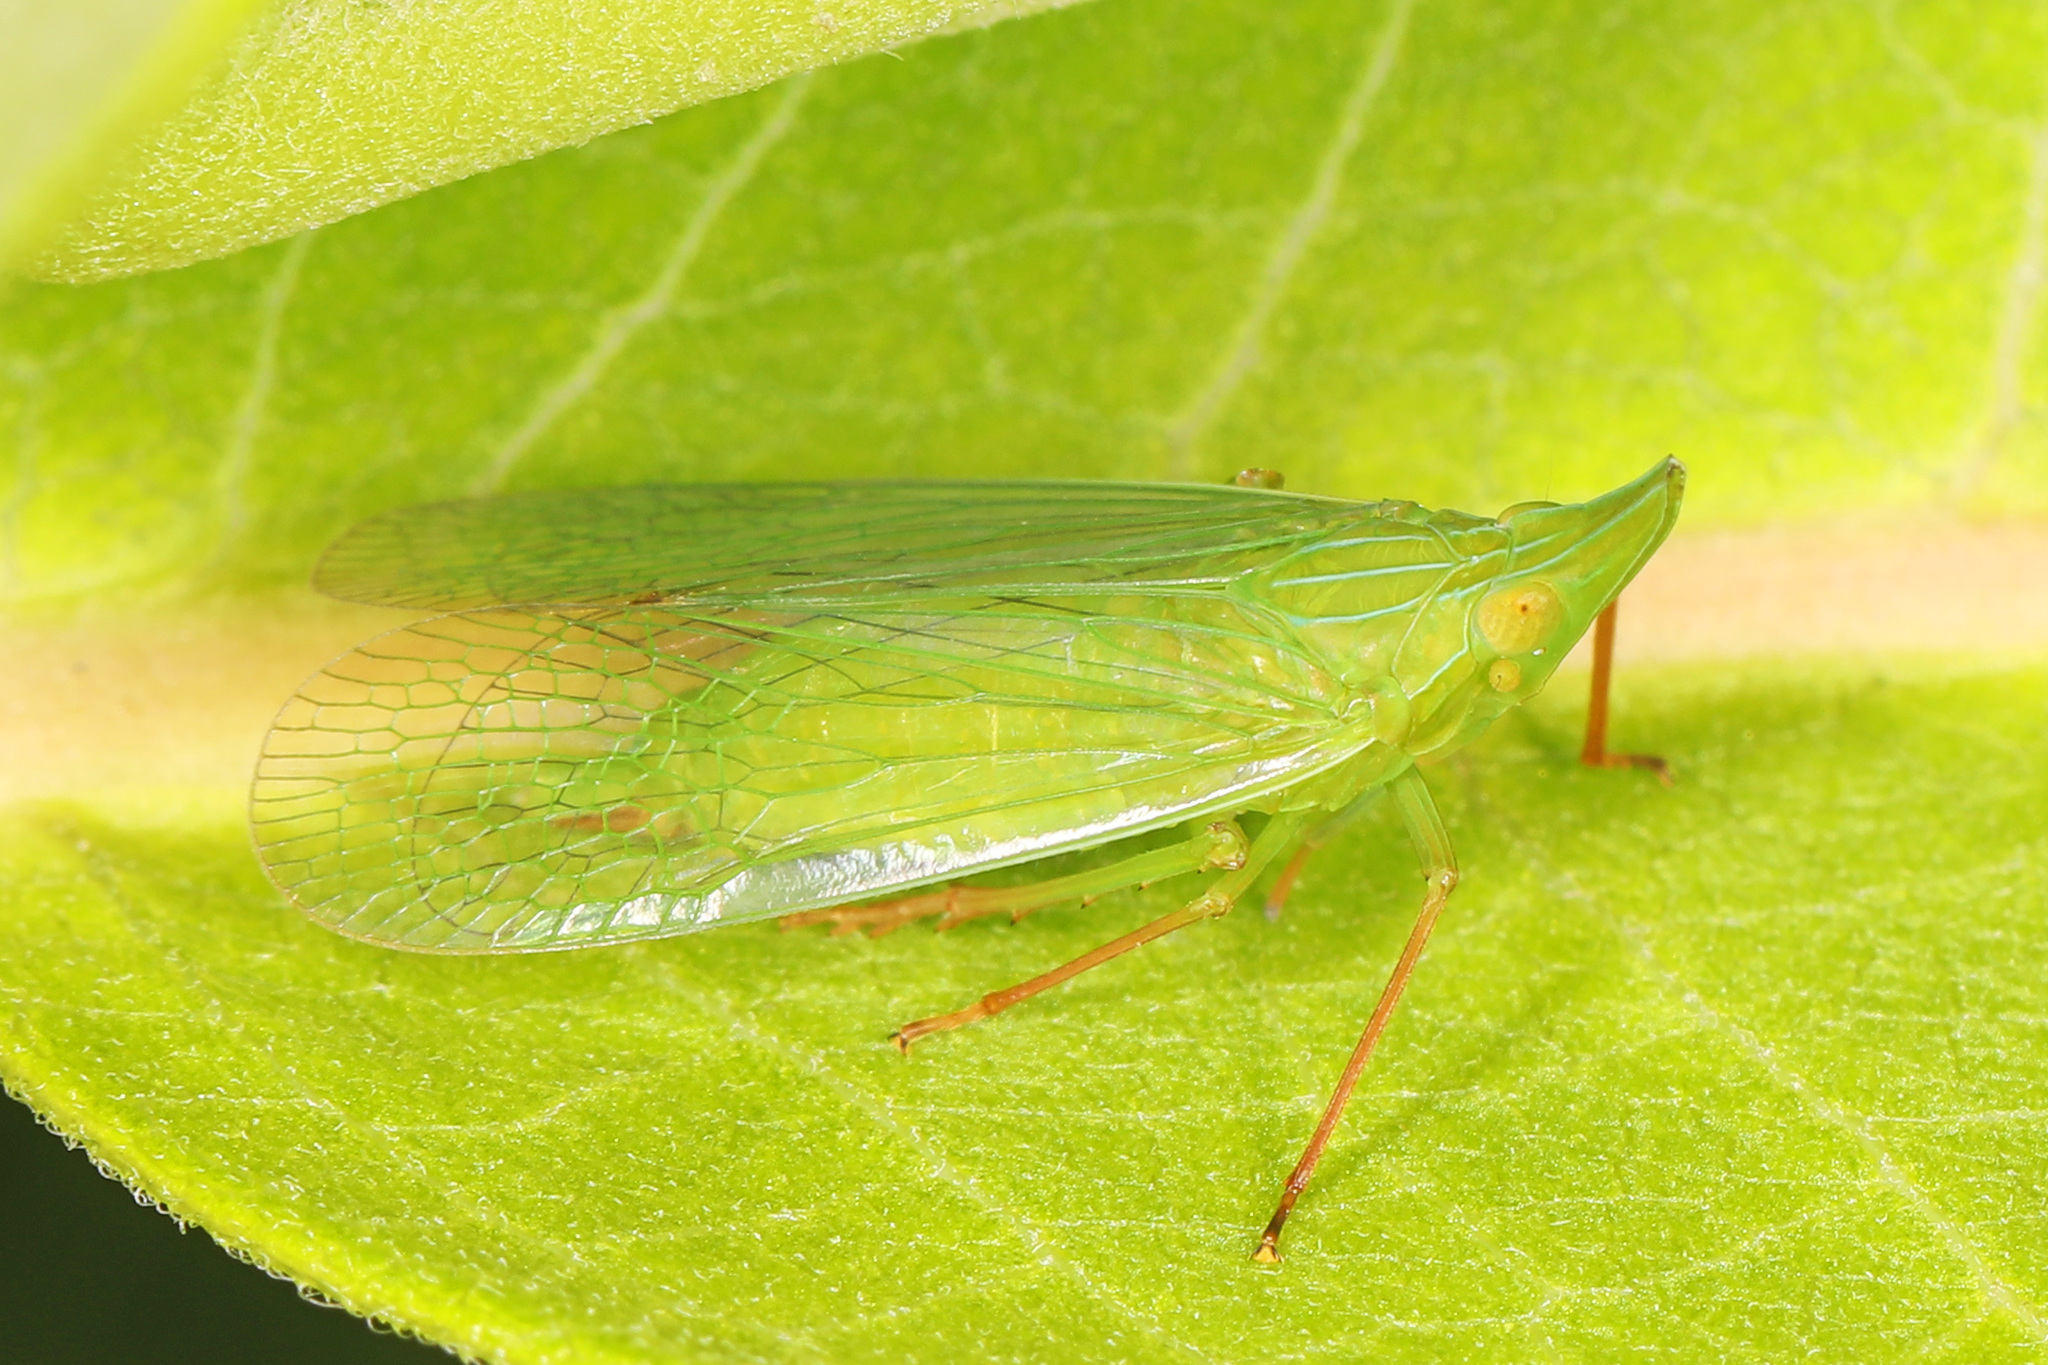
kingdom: Animalia
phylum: Arthropoda
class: Insecta
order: Hemiptera
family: Dictyopharidae
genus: Rhynchomitra
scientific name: Rhynchomitra microrhina
